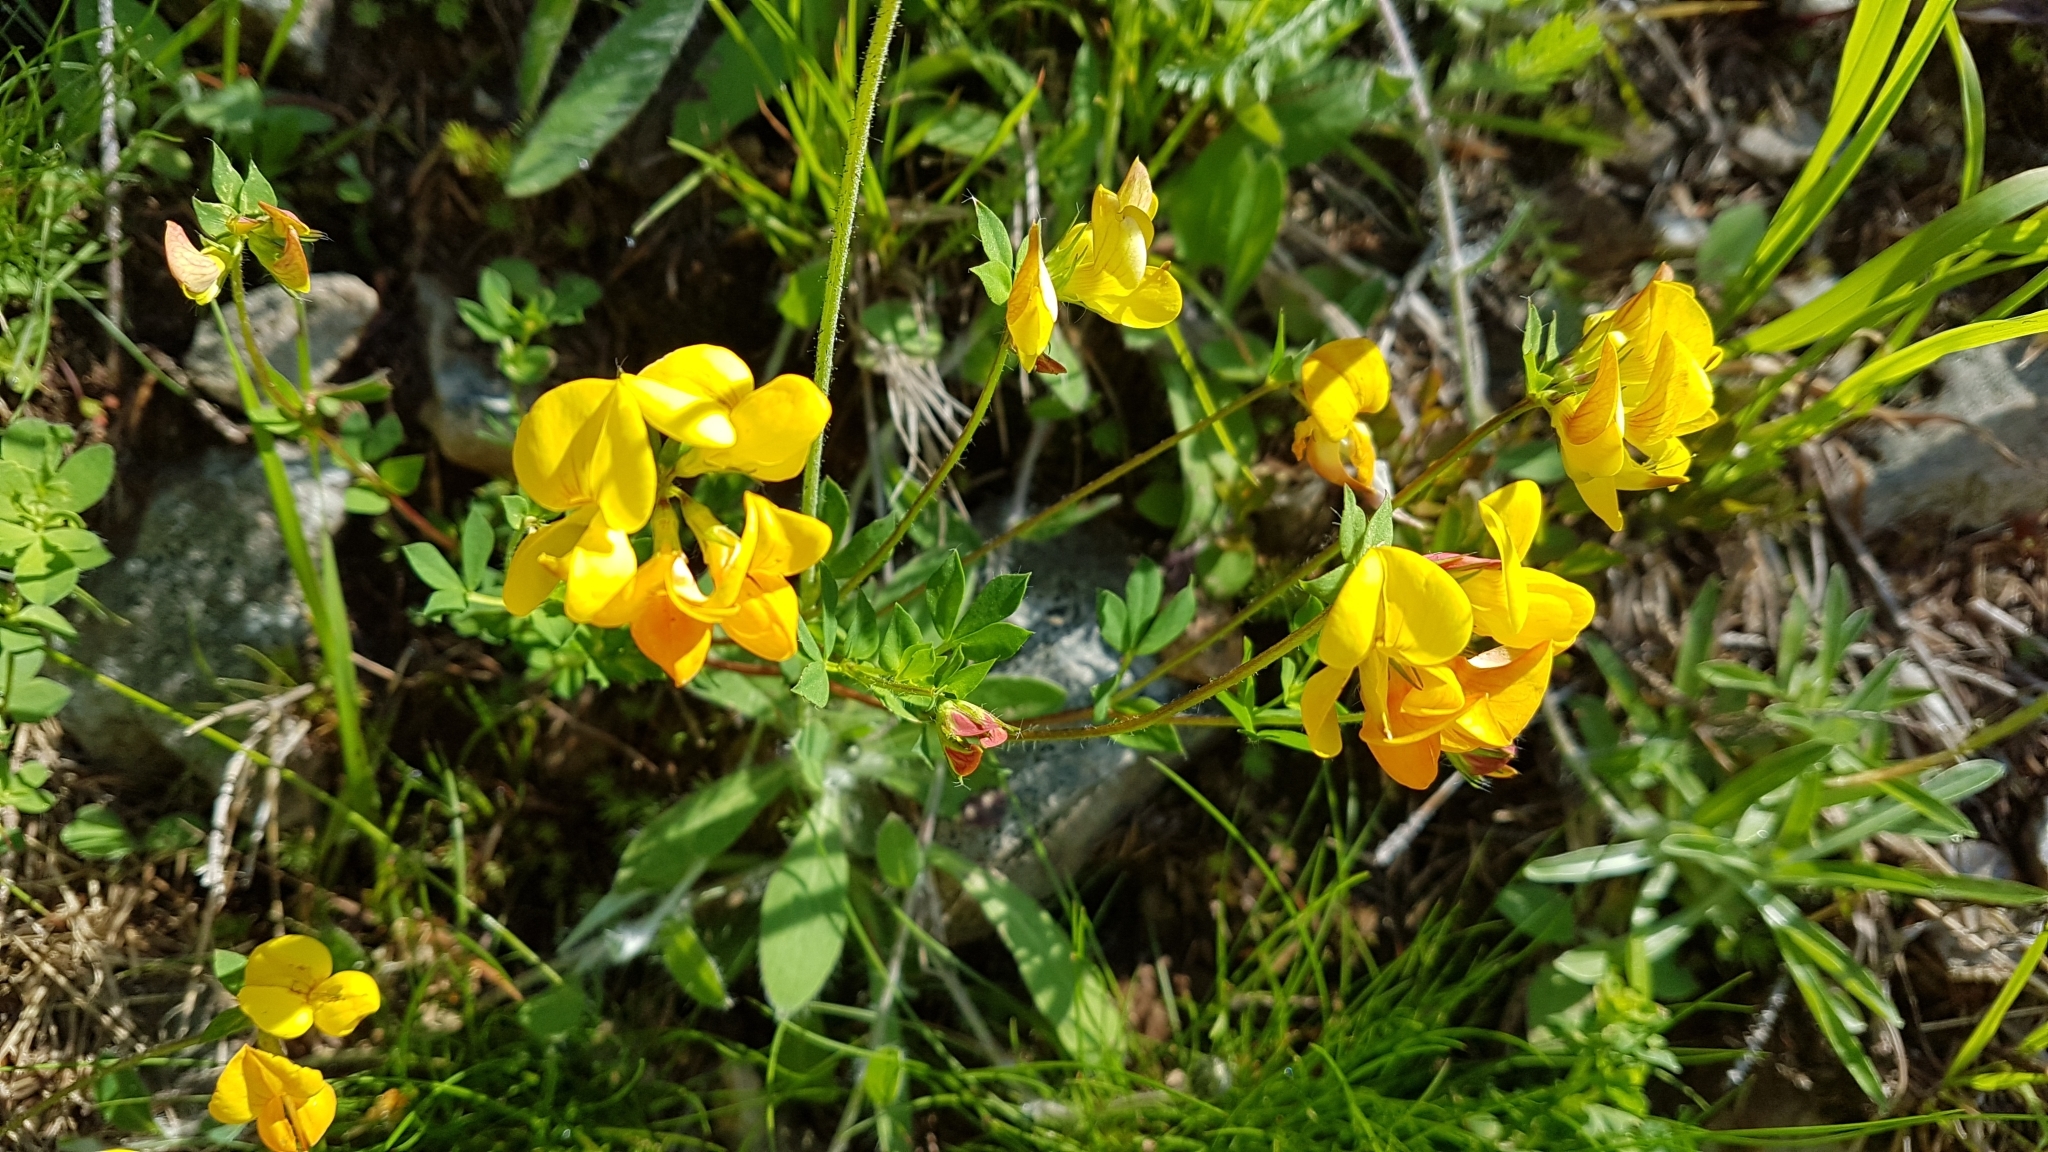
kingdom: Plantae
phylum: Tracheophyta
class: Magnoliopsida
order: Fabales
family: Fabaceae
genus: Lotus
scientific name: Lotus corniculatus
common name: Common bird's-foot-trefoil
